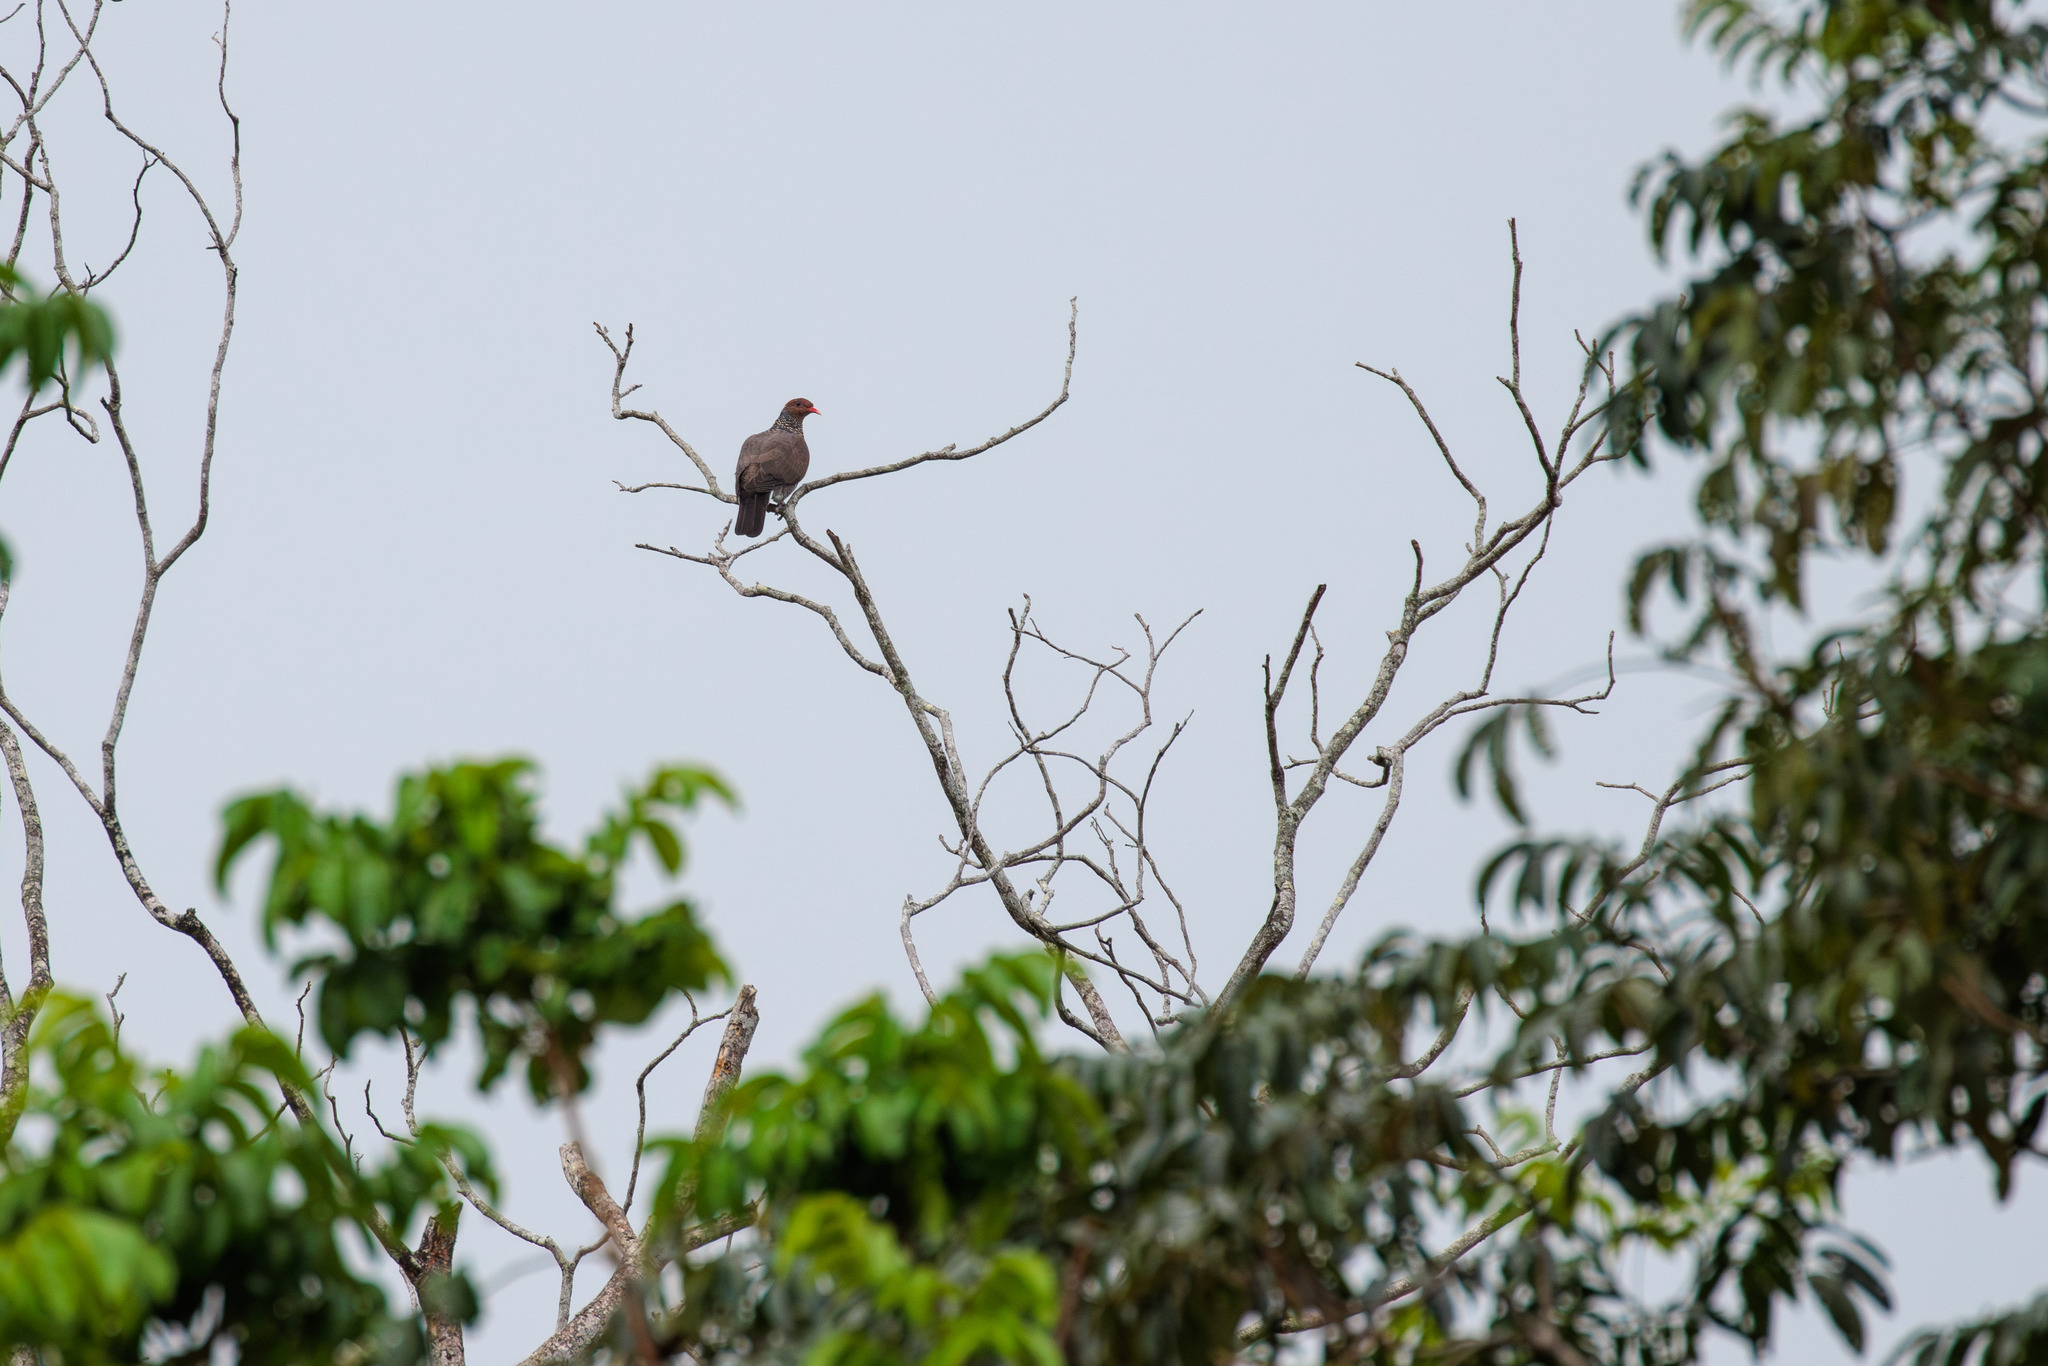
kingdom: Animalia
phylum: Chordata
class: Aves
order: Columbiformes
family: Columbidae
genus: Patagioenas
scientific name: Patagioenas speciosa
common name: Scaled pigeon
